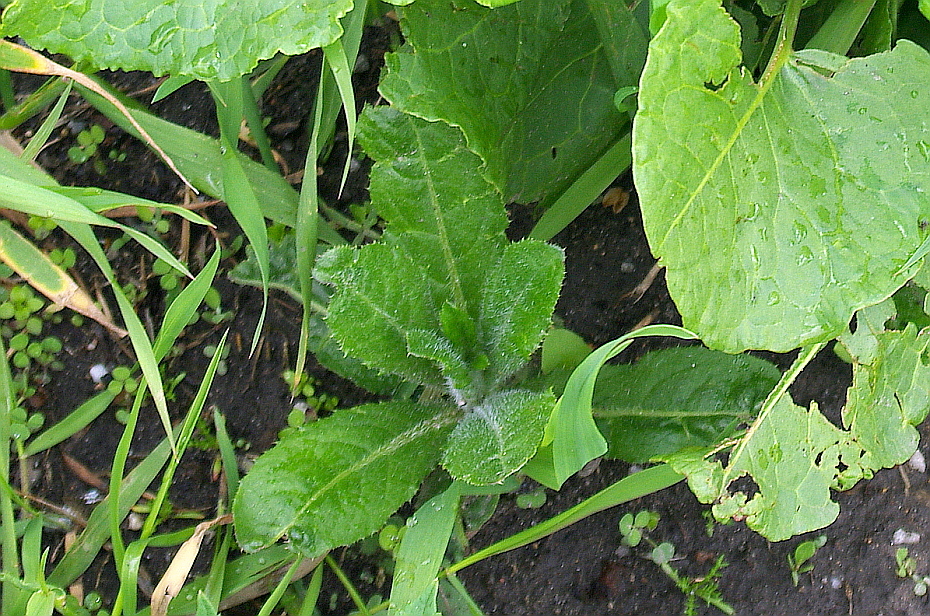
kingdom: Plantae
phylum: Tracheophyta
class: Magnoliopsida
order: Asterales
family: Asteraceae
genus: Cirsium
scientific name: Cirsium arvense
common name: Creeping thistle
